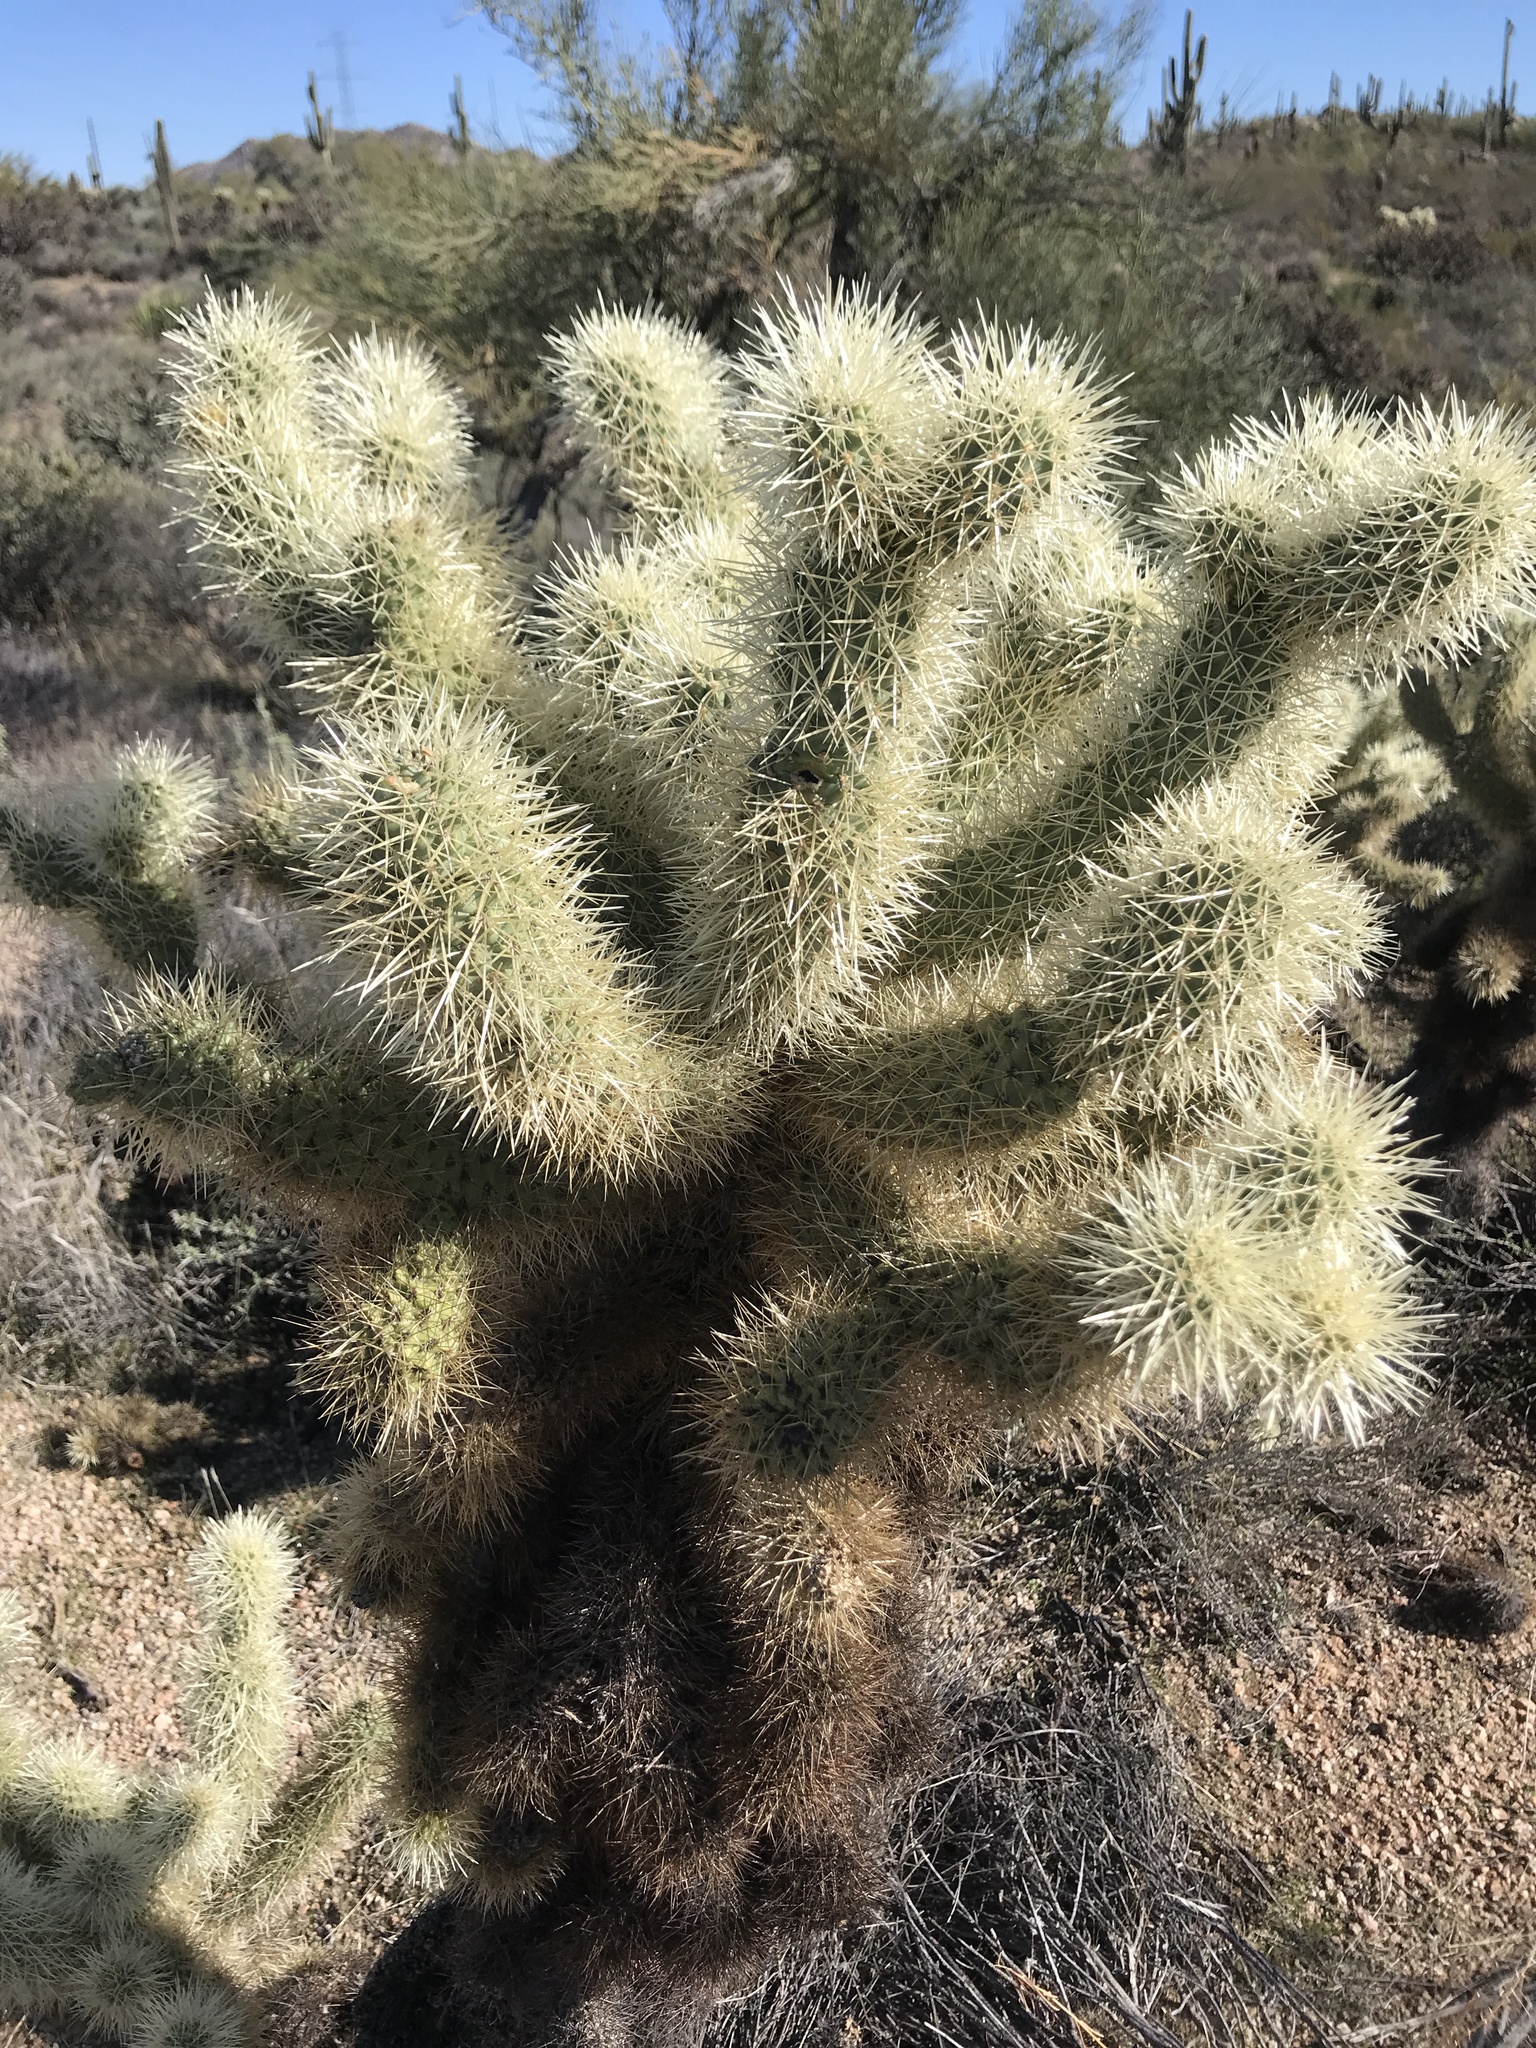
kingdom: Plantae
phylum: Tracheophyta
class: Magnoliopsida
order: Caryophyllales
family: Cactaceae
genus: Cylindropuntia
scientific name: Cylindropuntia fosbergii
